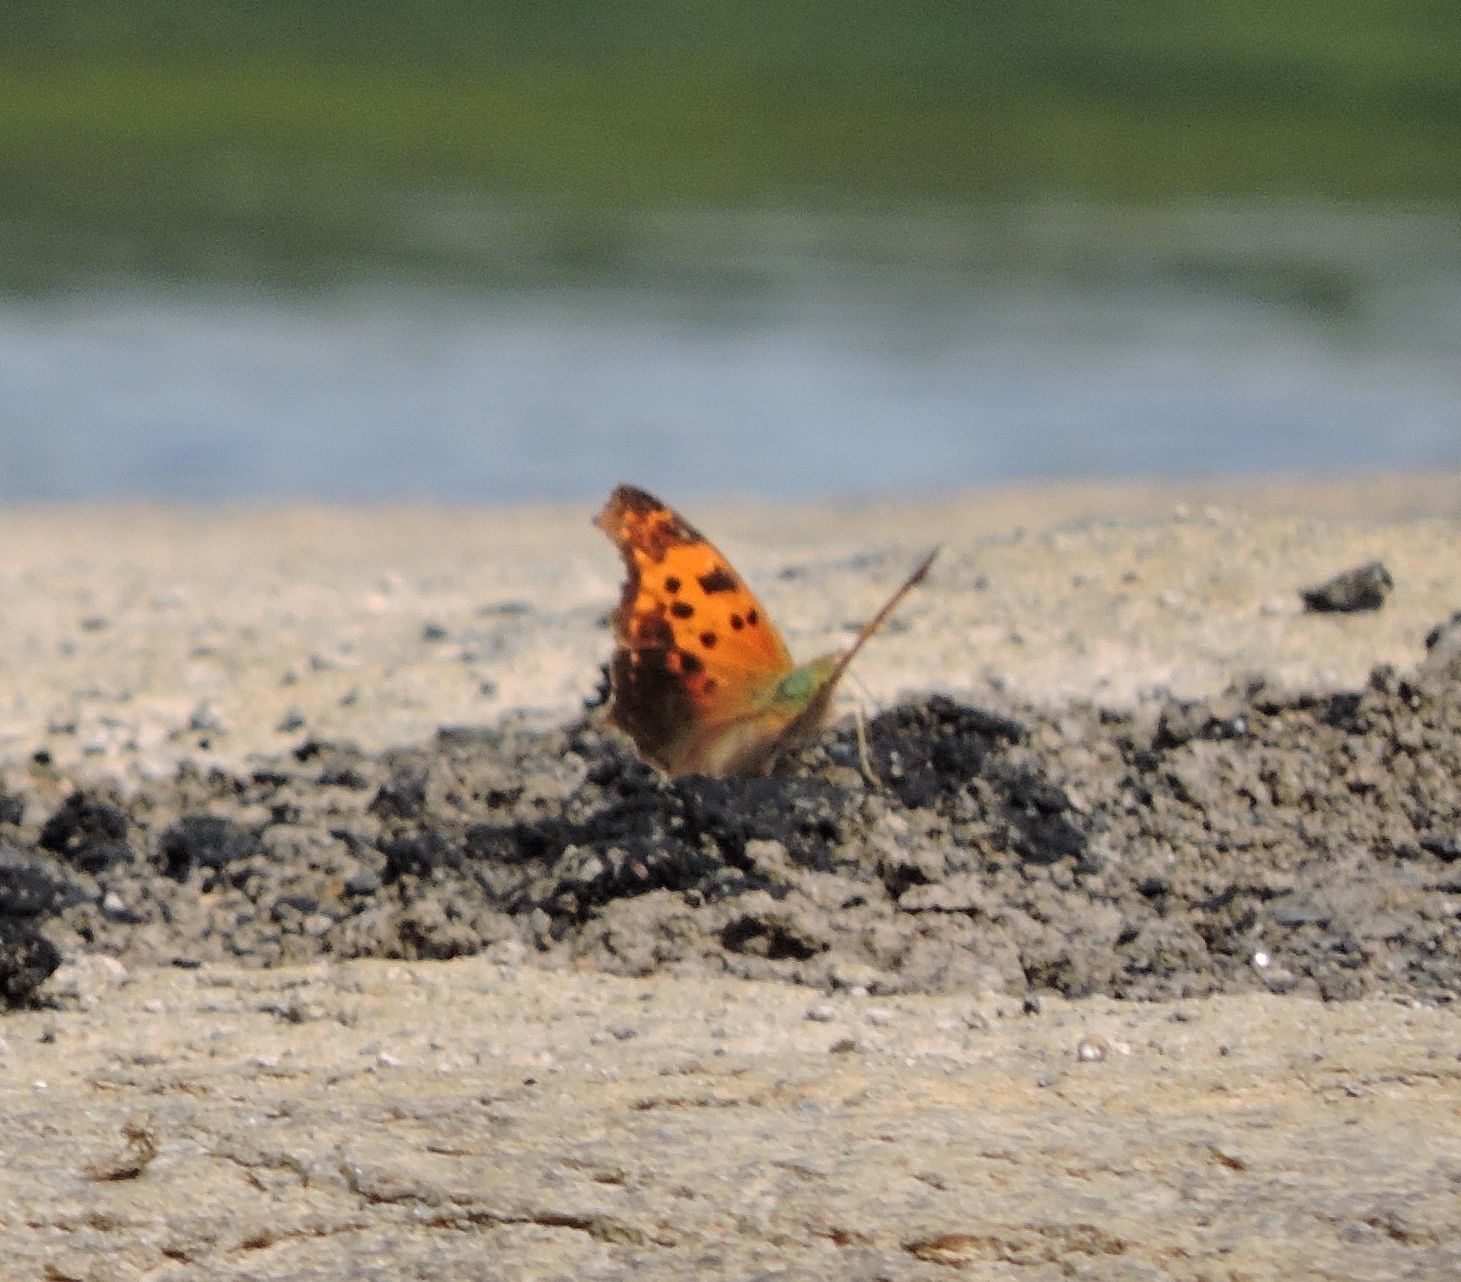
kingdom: Animalia
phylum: Arthropoda
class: Insecta
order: Lepidoptera
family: Nymphalidae
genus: Polygonia
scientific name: Polygonia comma
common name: Eastern comma
